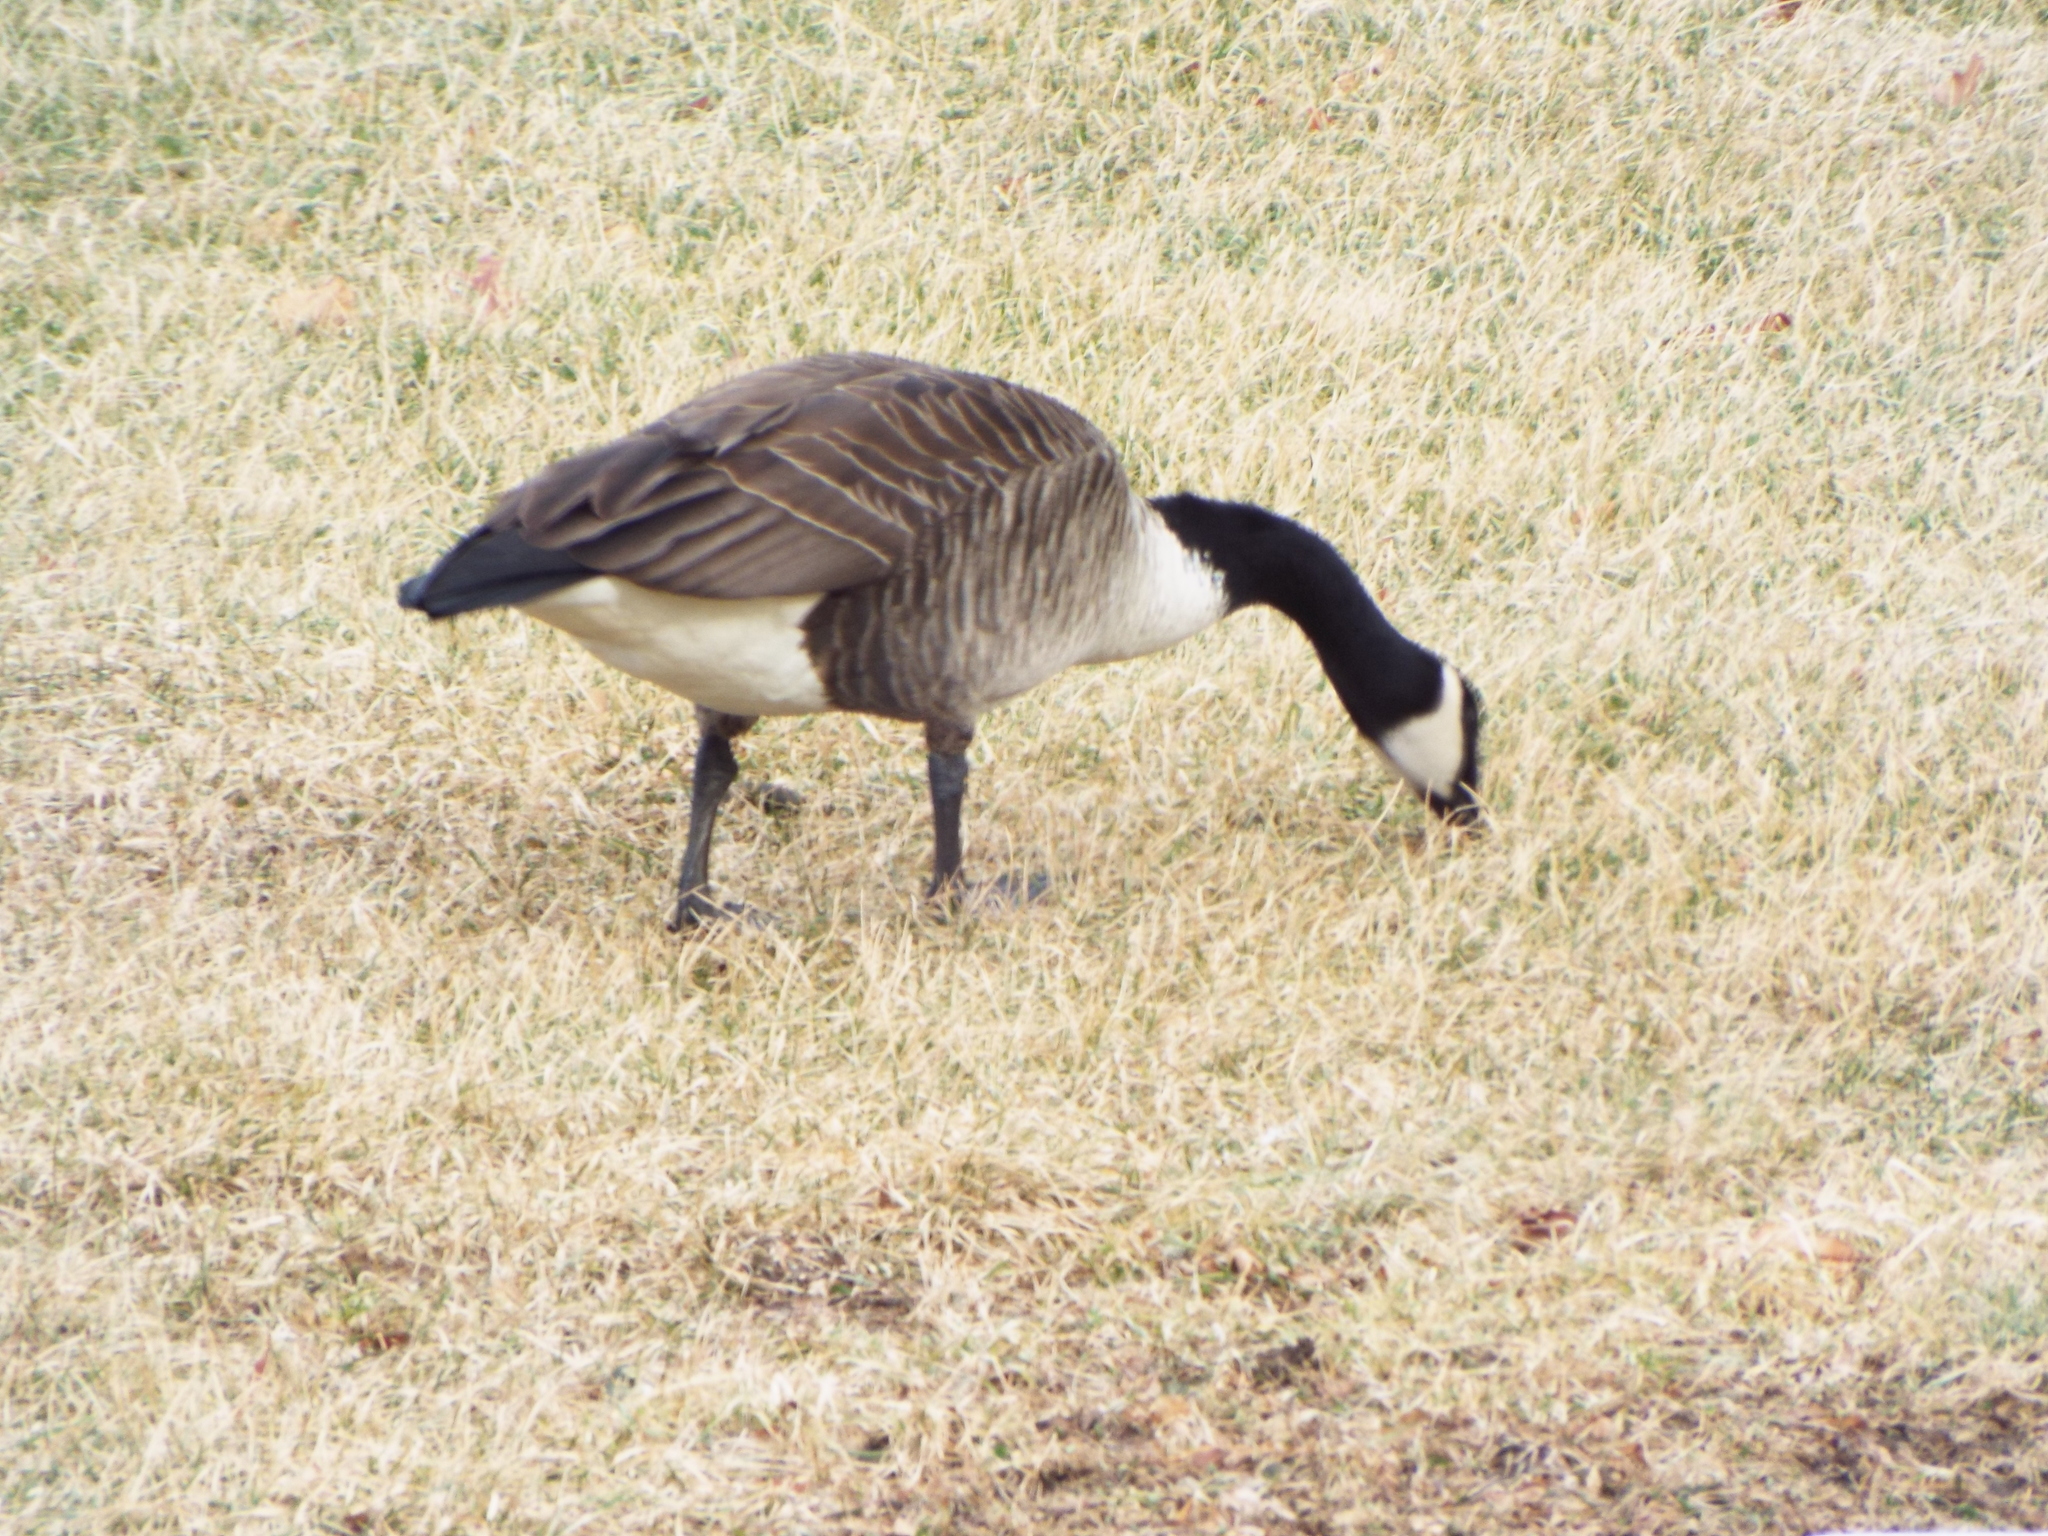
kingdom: Animalia
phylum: Chordata
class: Aves
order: Anseriformes
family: Anatidae
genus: Branta
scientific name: Branta canadensis
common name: Canada goose
